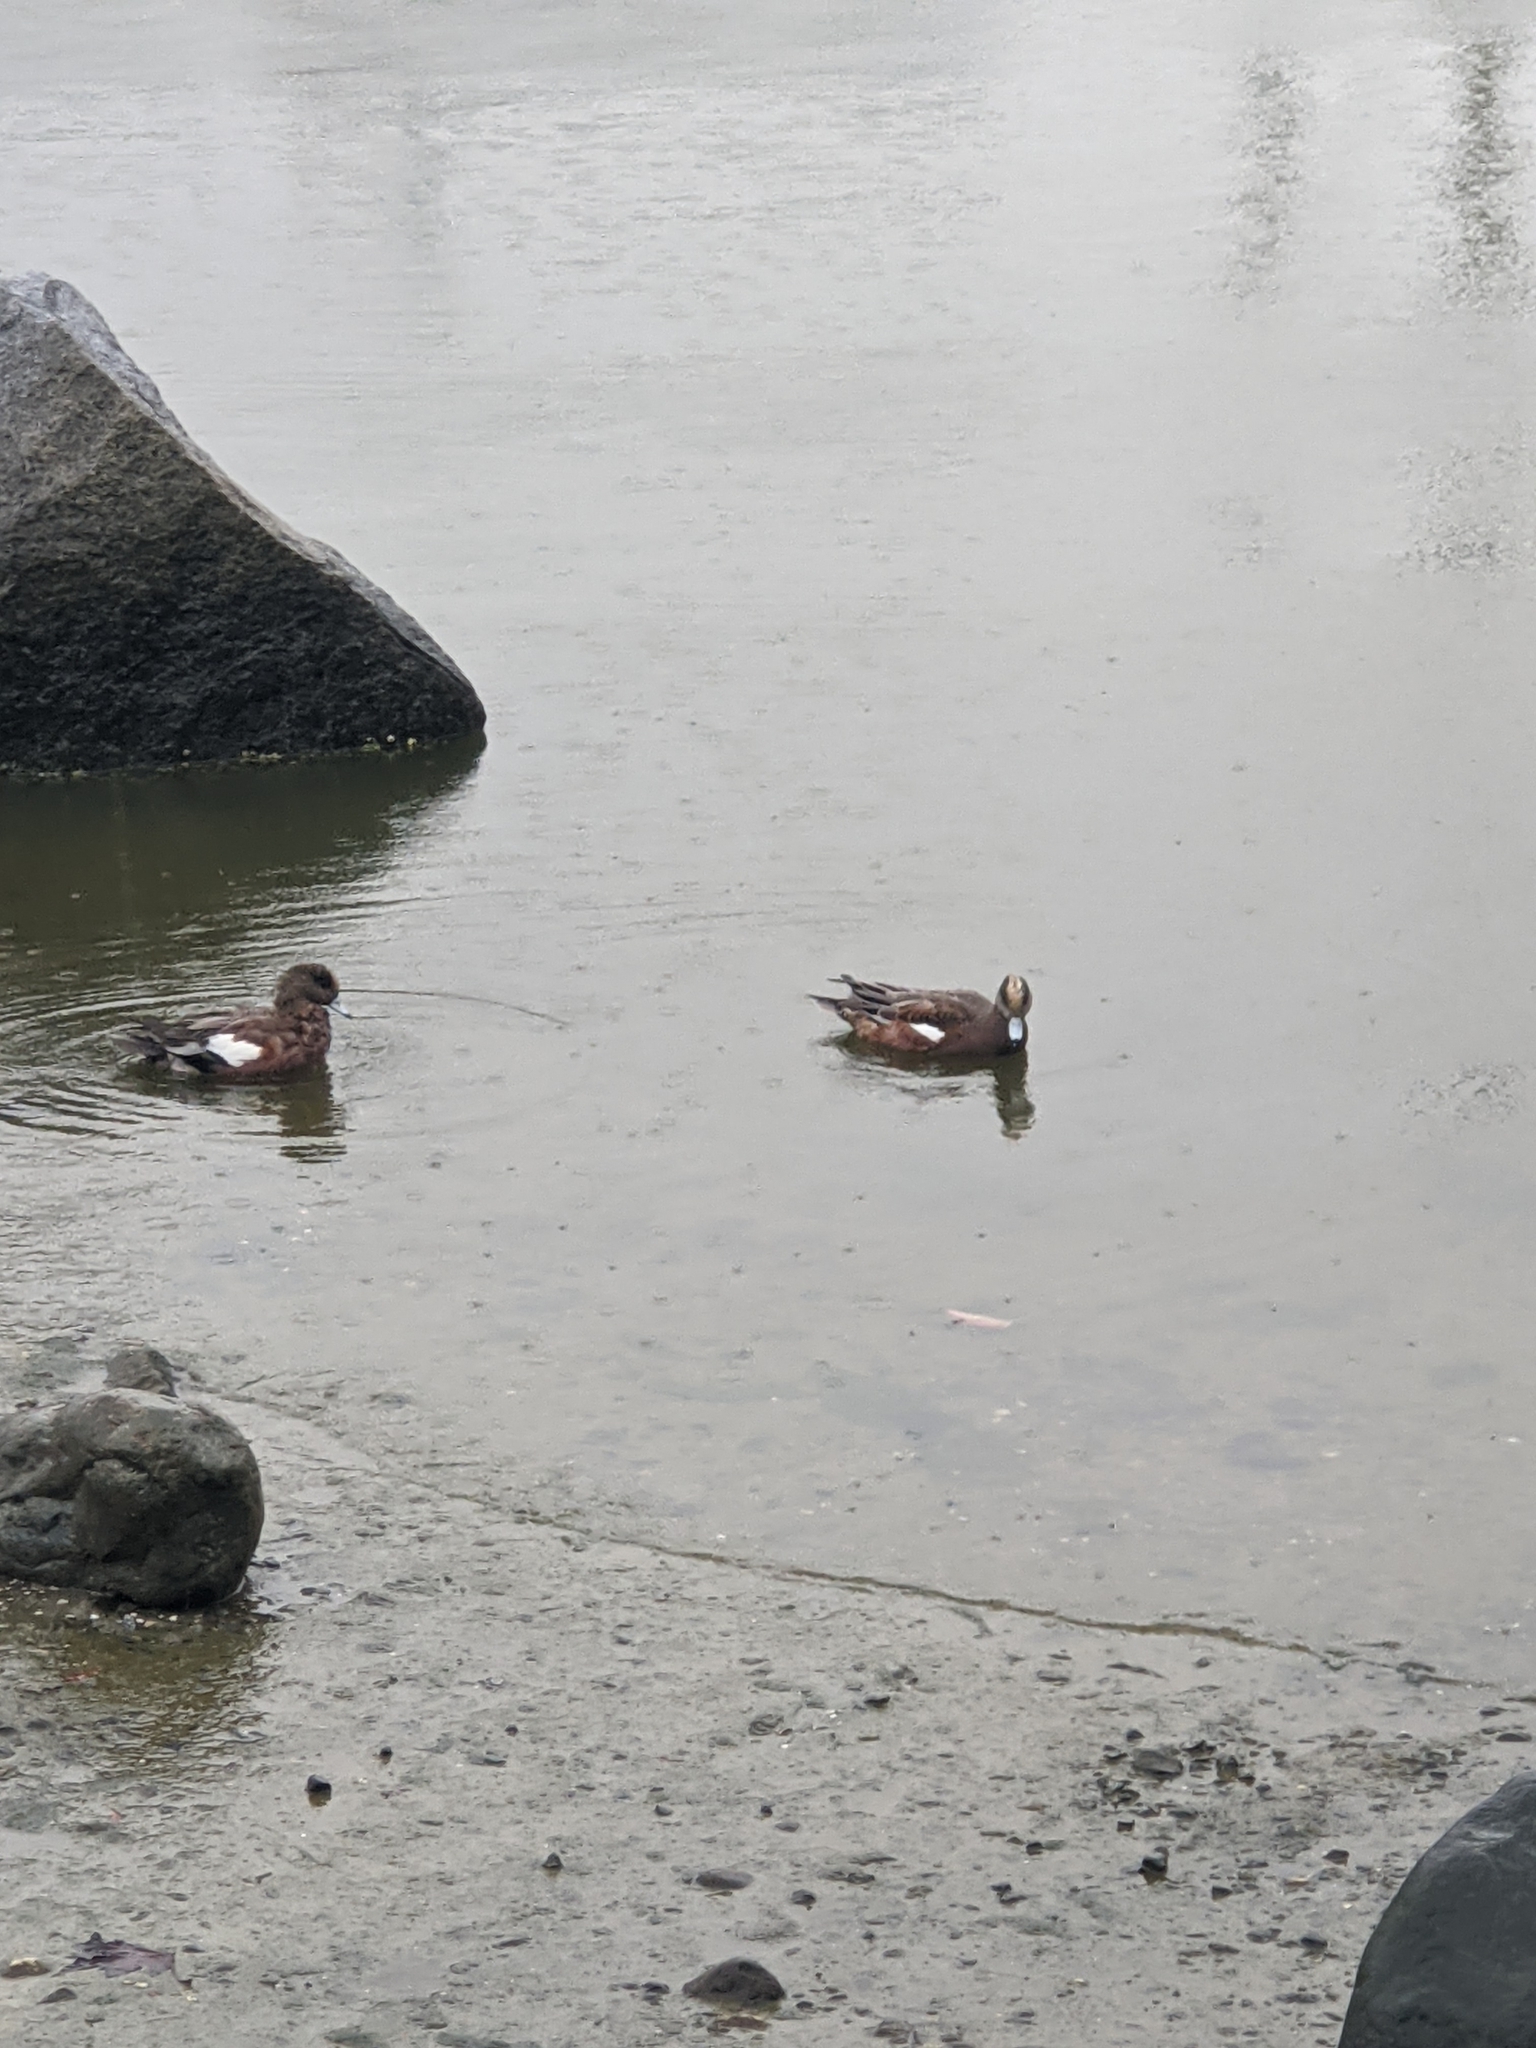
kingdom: Animalia
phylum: Chordata
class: Aves
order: Anseriformes
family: Anatidae
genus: Mareca
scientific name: Mareca americana
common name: American wigeon
